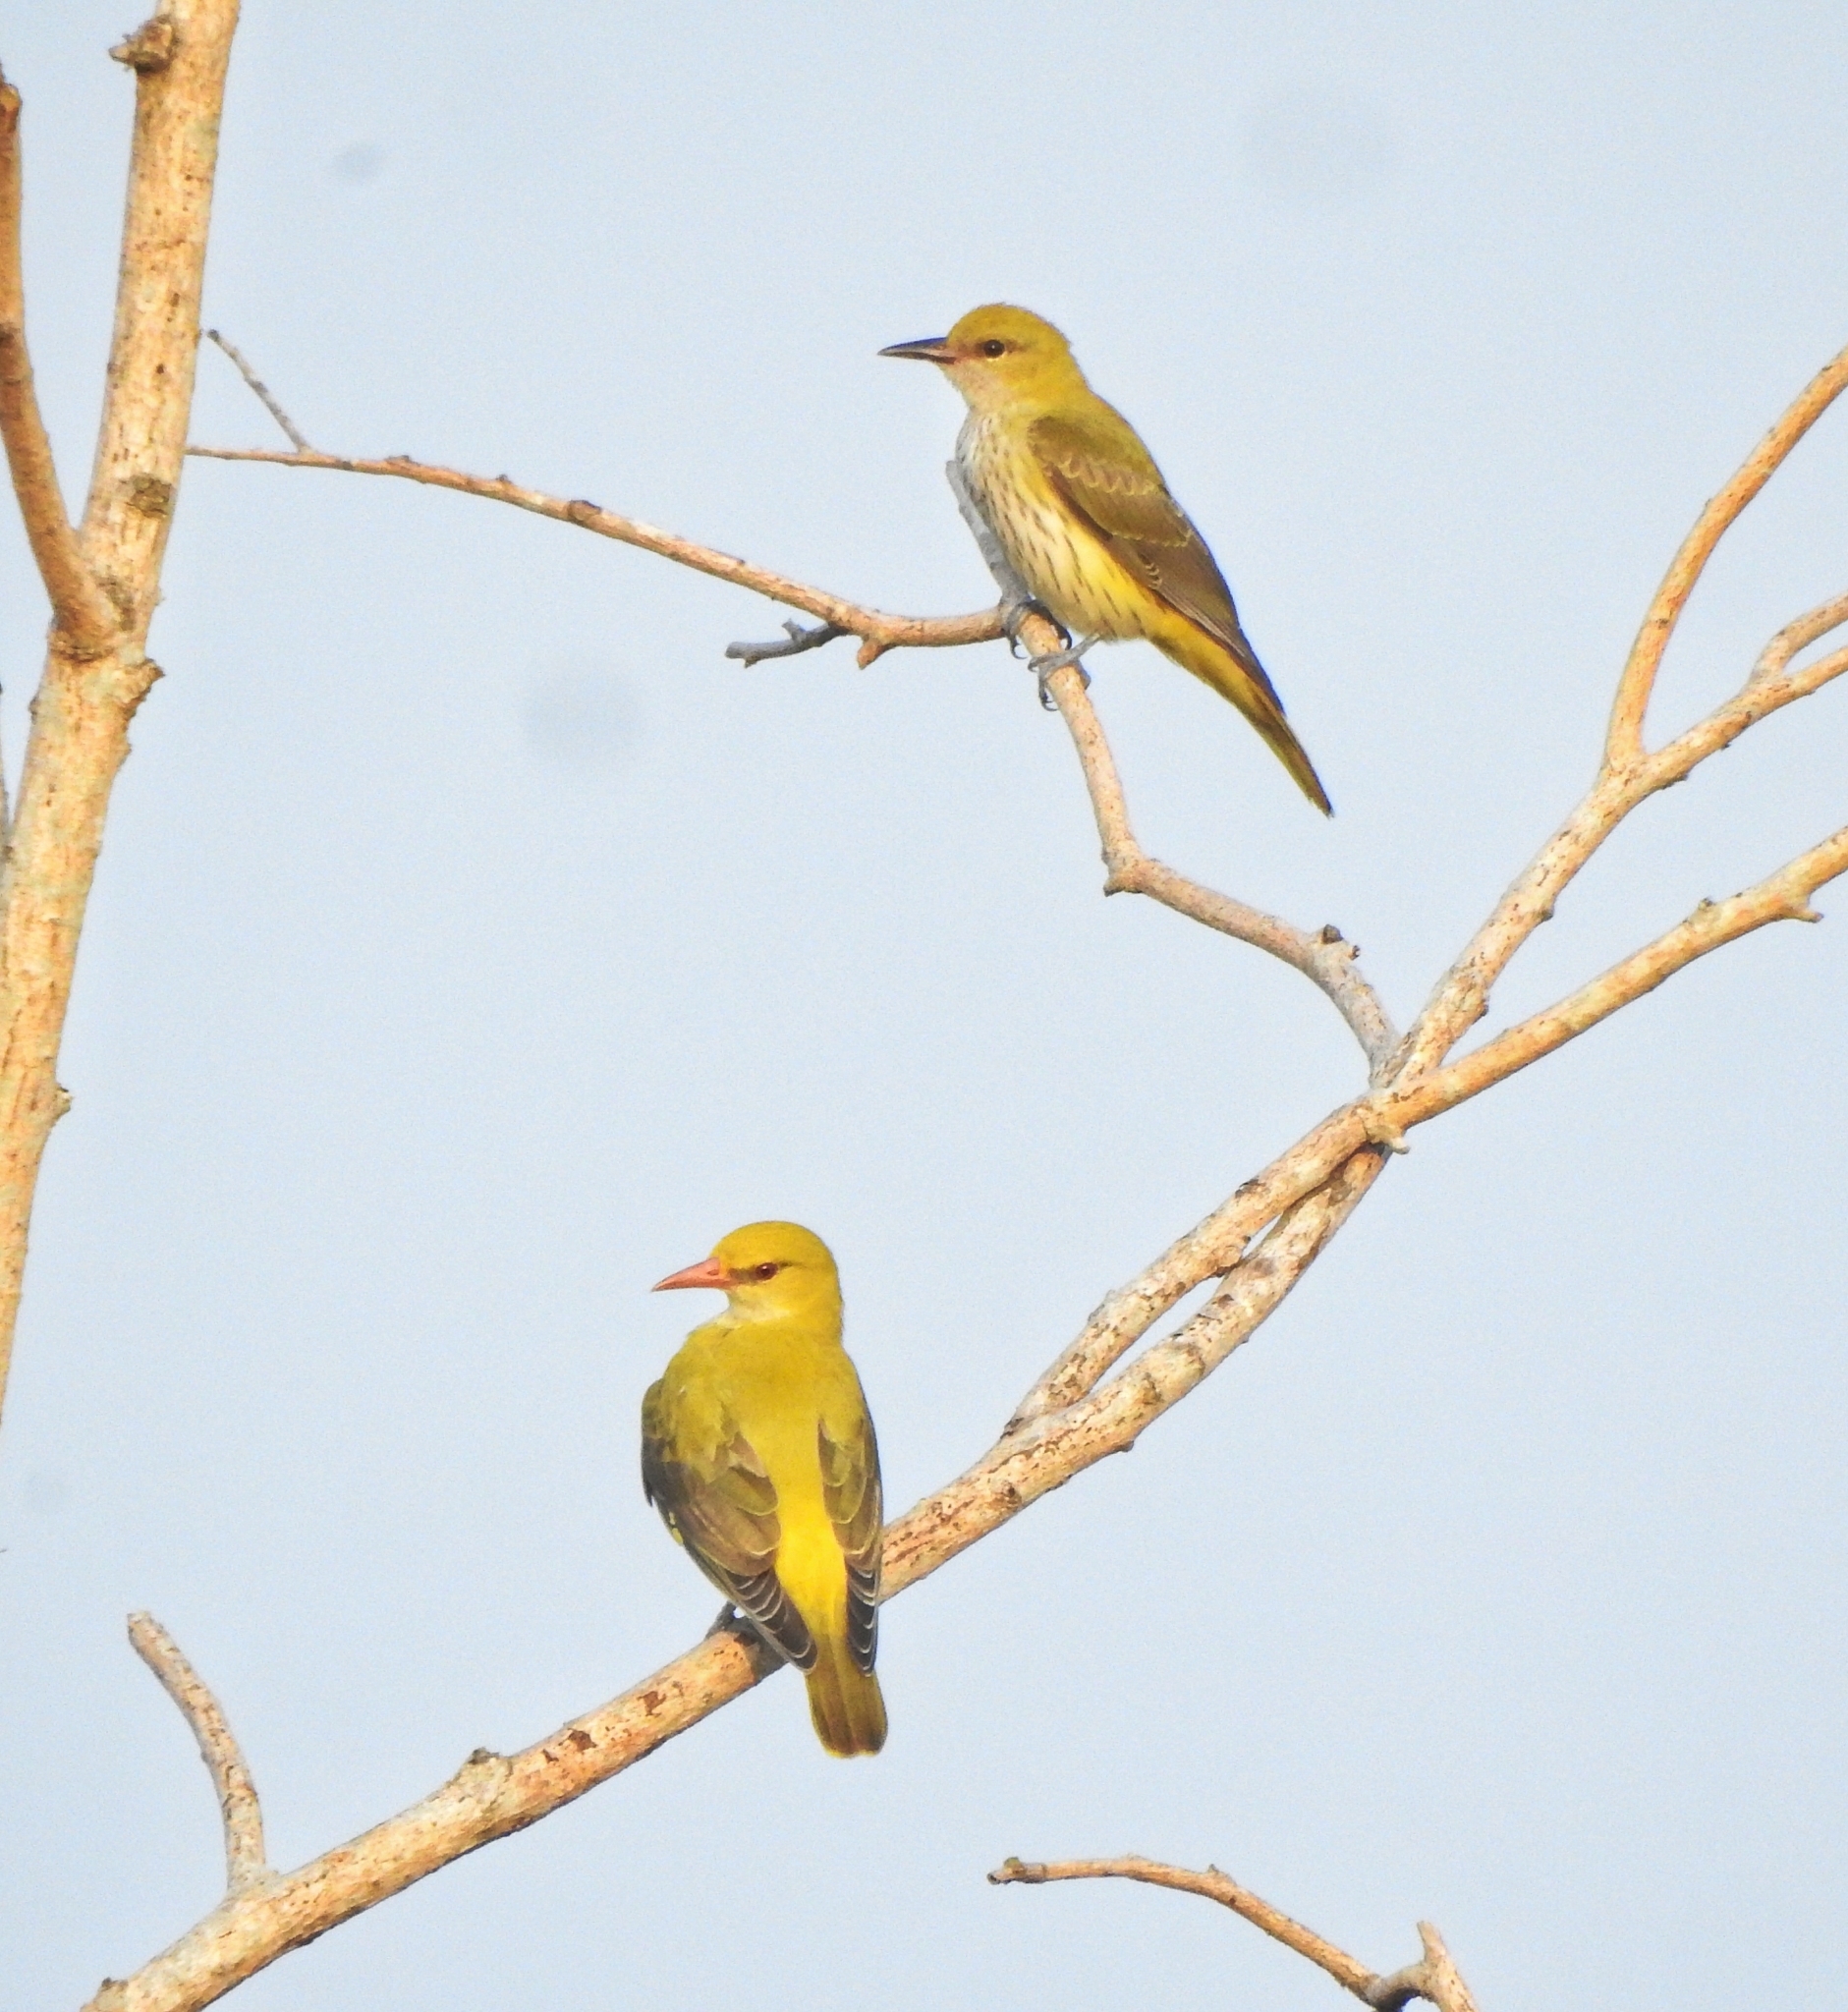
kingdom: Animalia
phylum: Chordata
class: Aves
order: Passeriformes
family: Oriolidae
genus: Oriolus
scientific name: Oriolus kundoo
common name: Indian golden oriole
